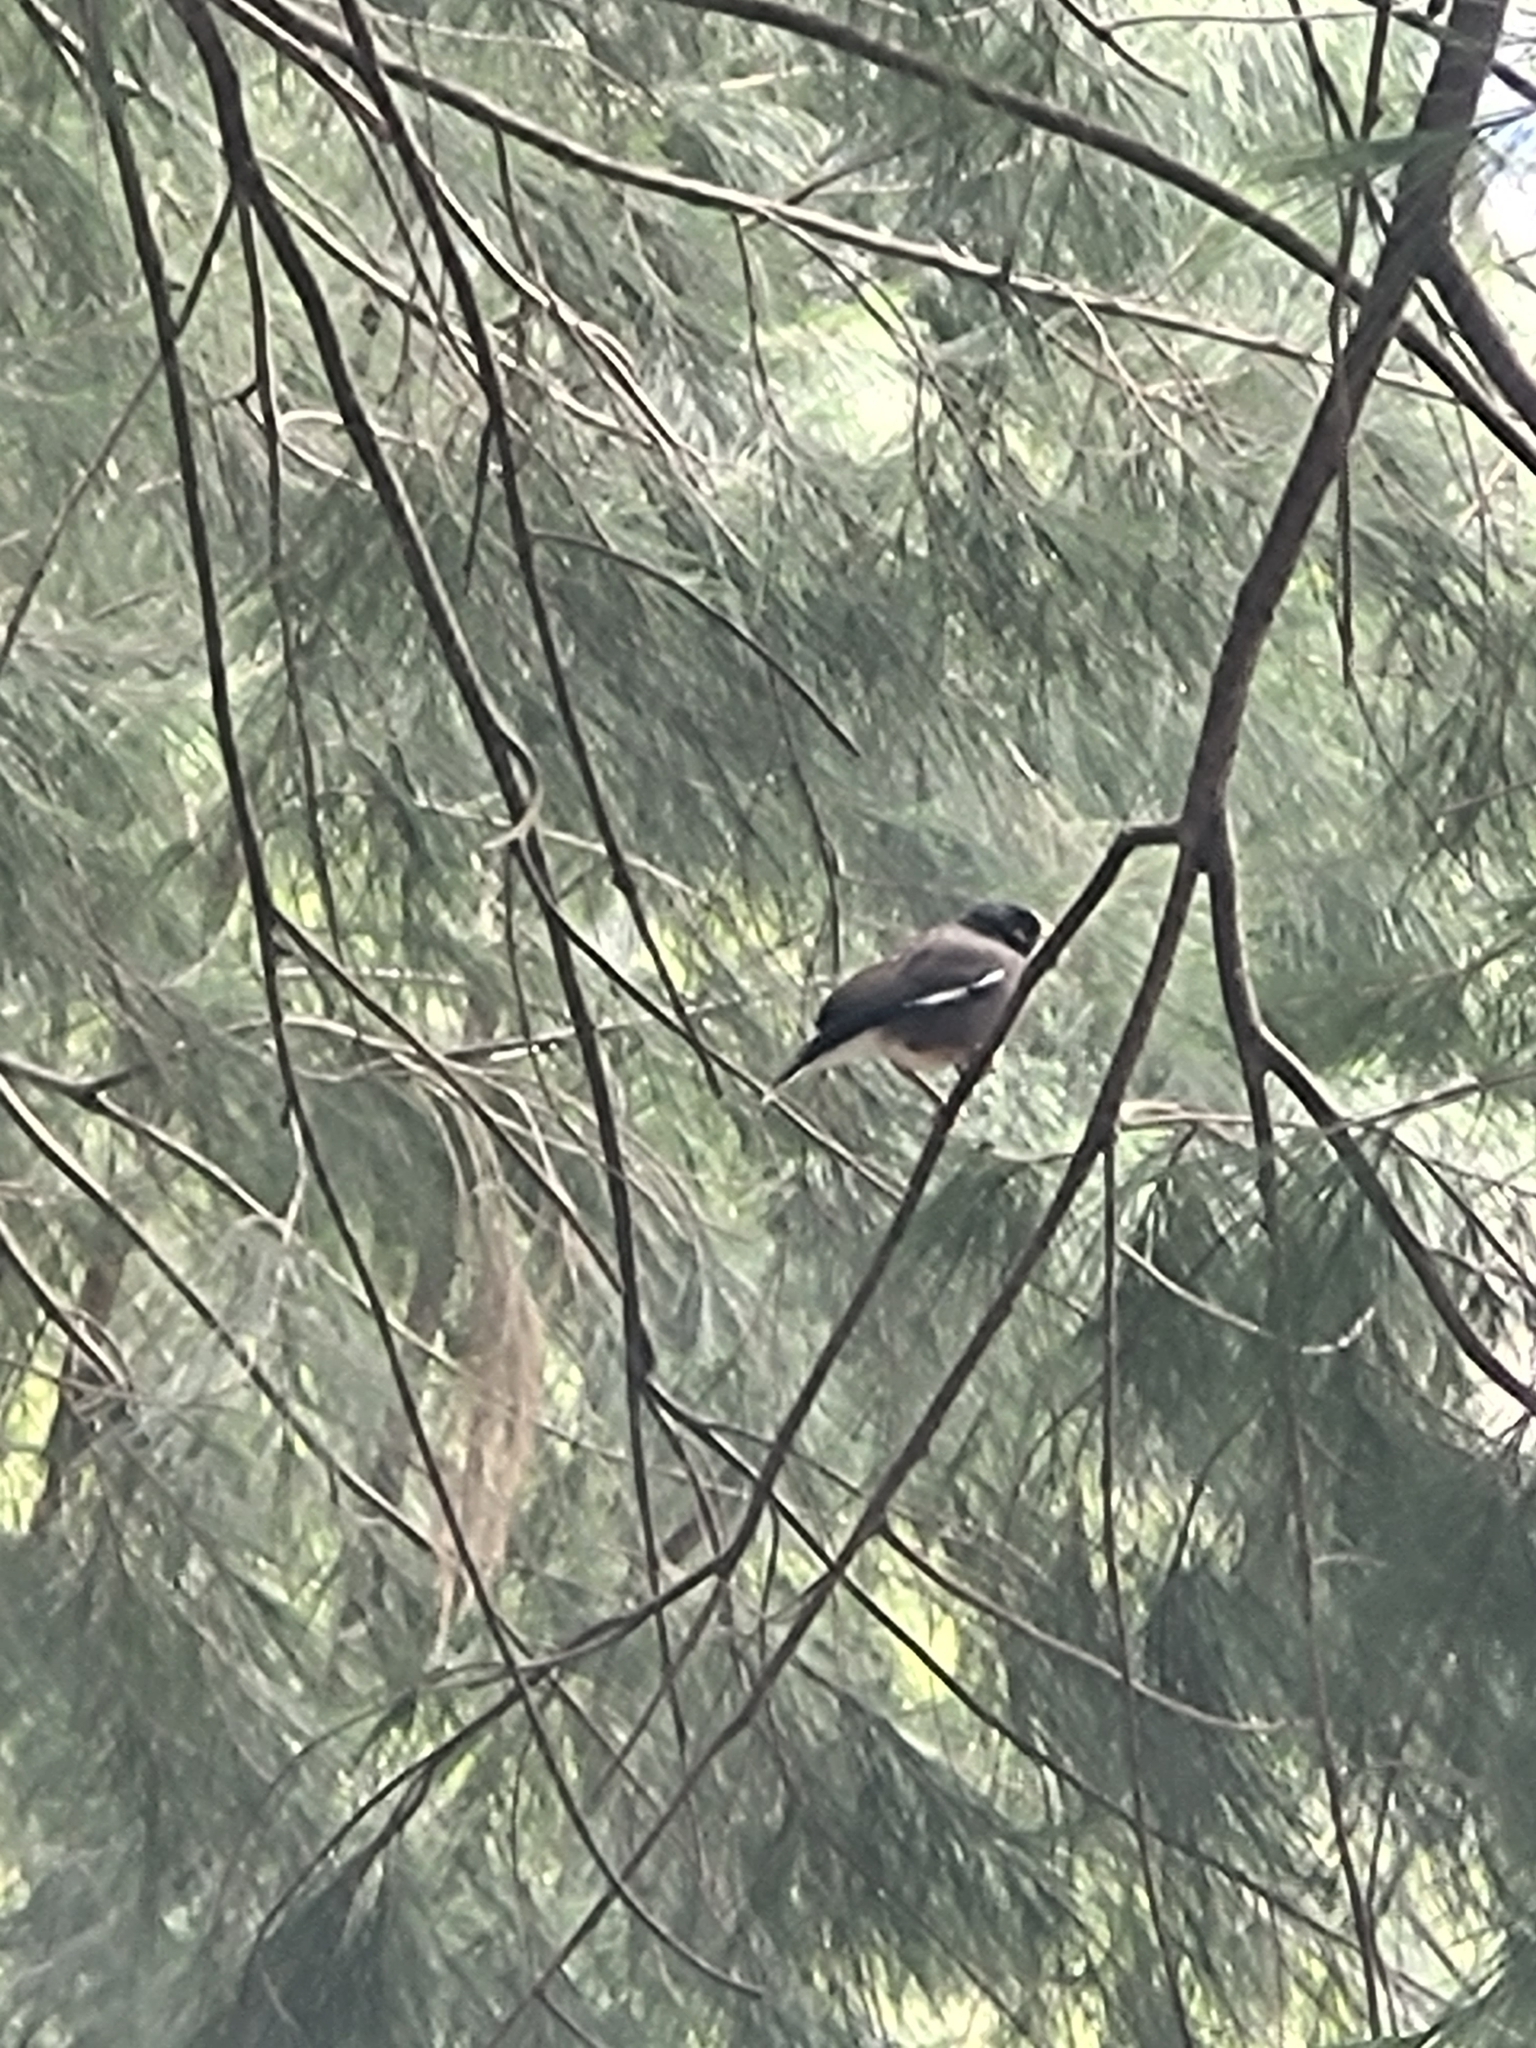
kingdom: Animalia
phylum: Chordata
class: Aves
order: Passeriformes
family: Sturnidae
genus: Acridotheres
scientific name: Acridotheres tristis
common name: Common myna
